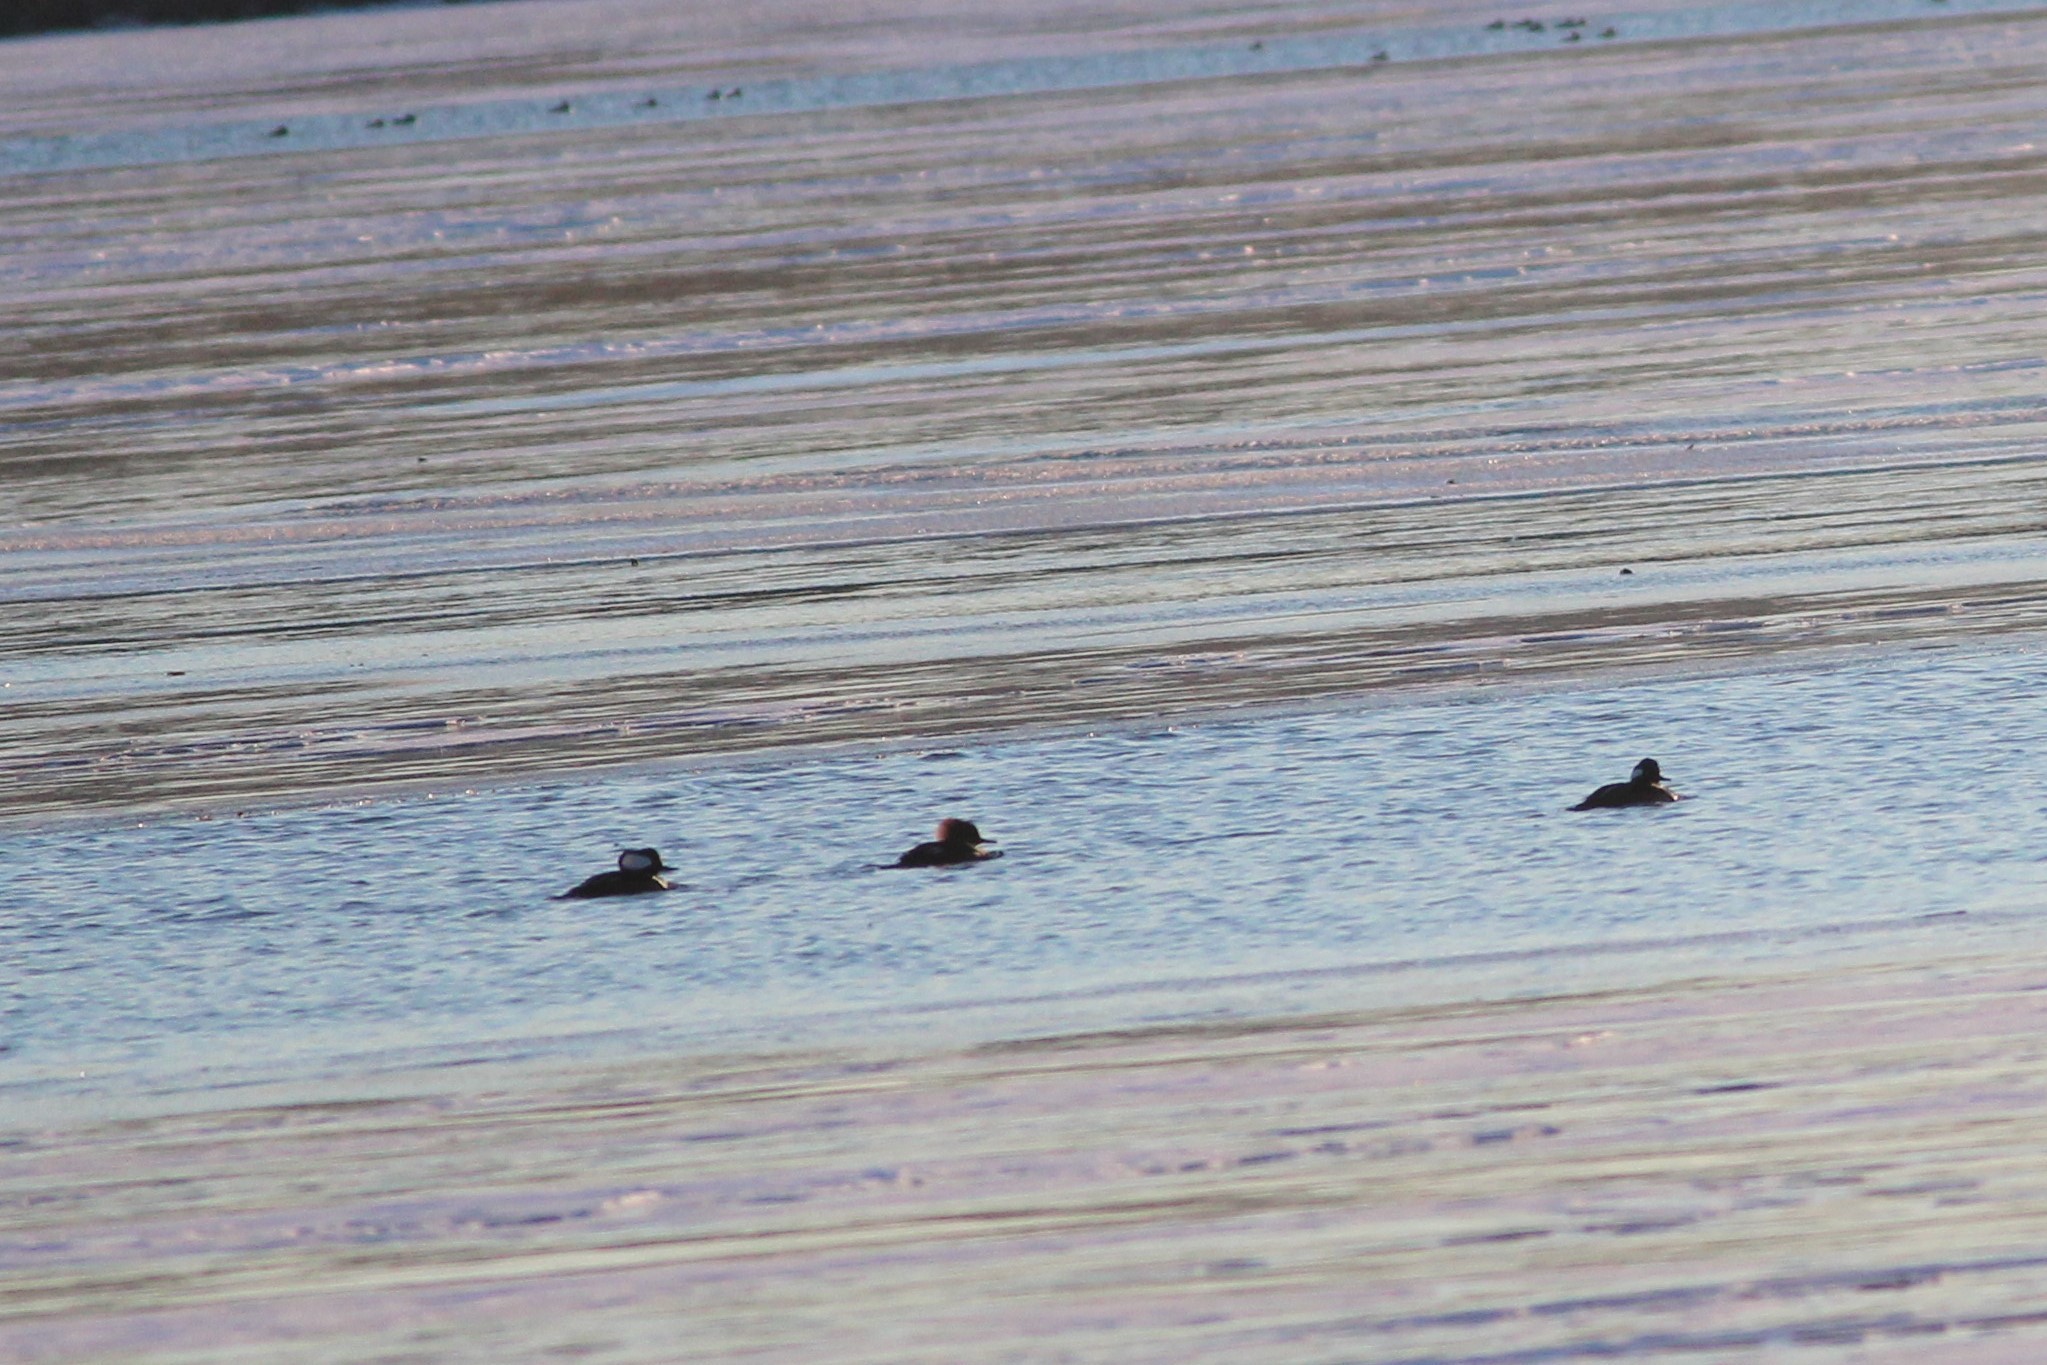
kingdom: Animalia
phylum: Chordata
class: Aves
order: Anseriformes
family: Anatidae
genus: Lophodytes
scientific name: Lophodytes cucullatus
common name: Hooded merganser
